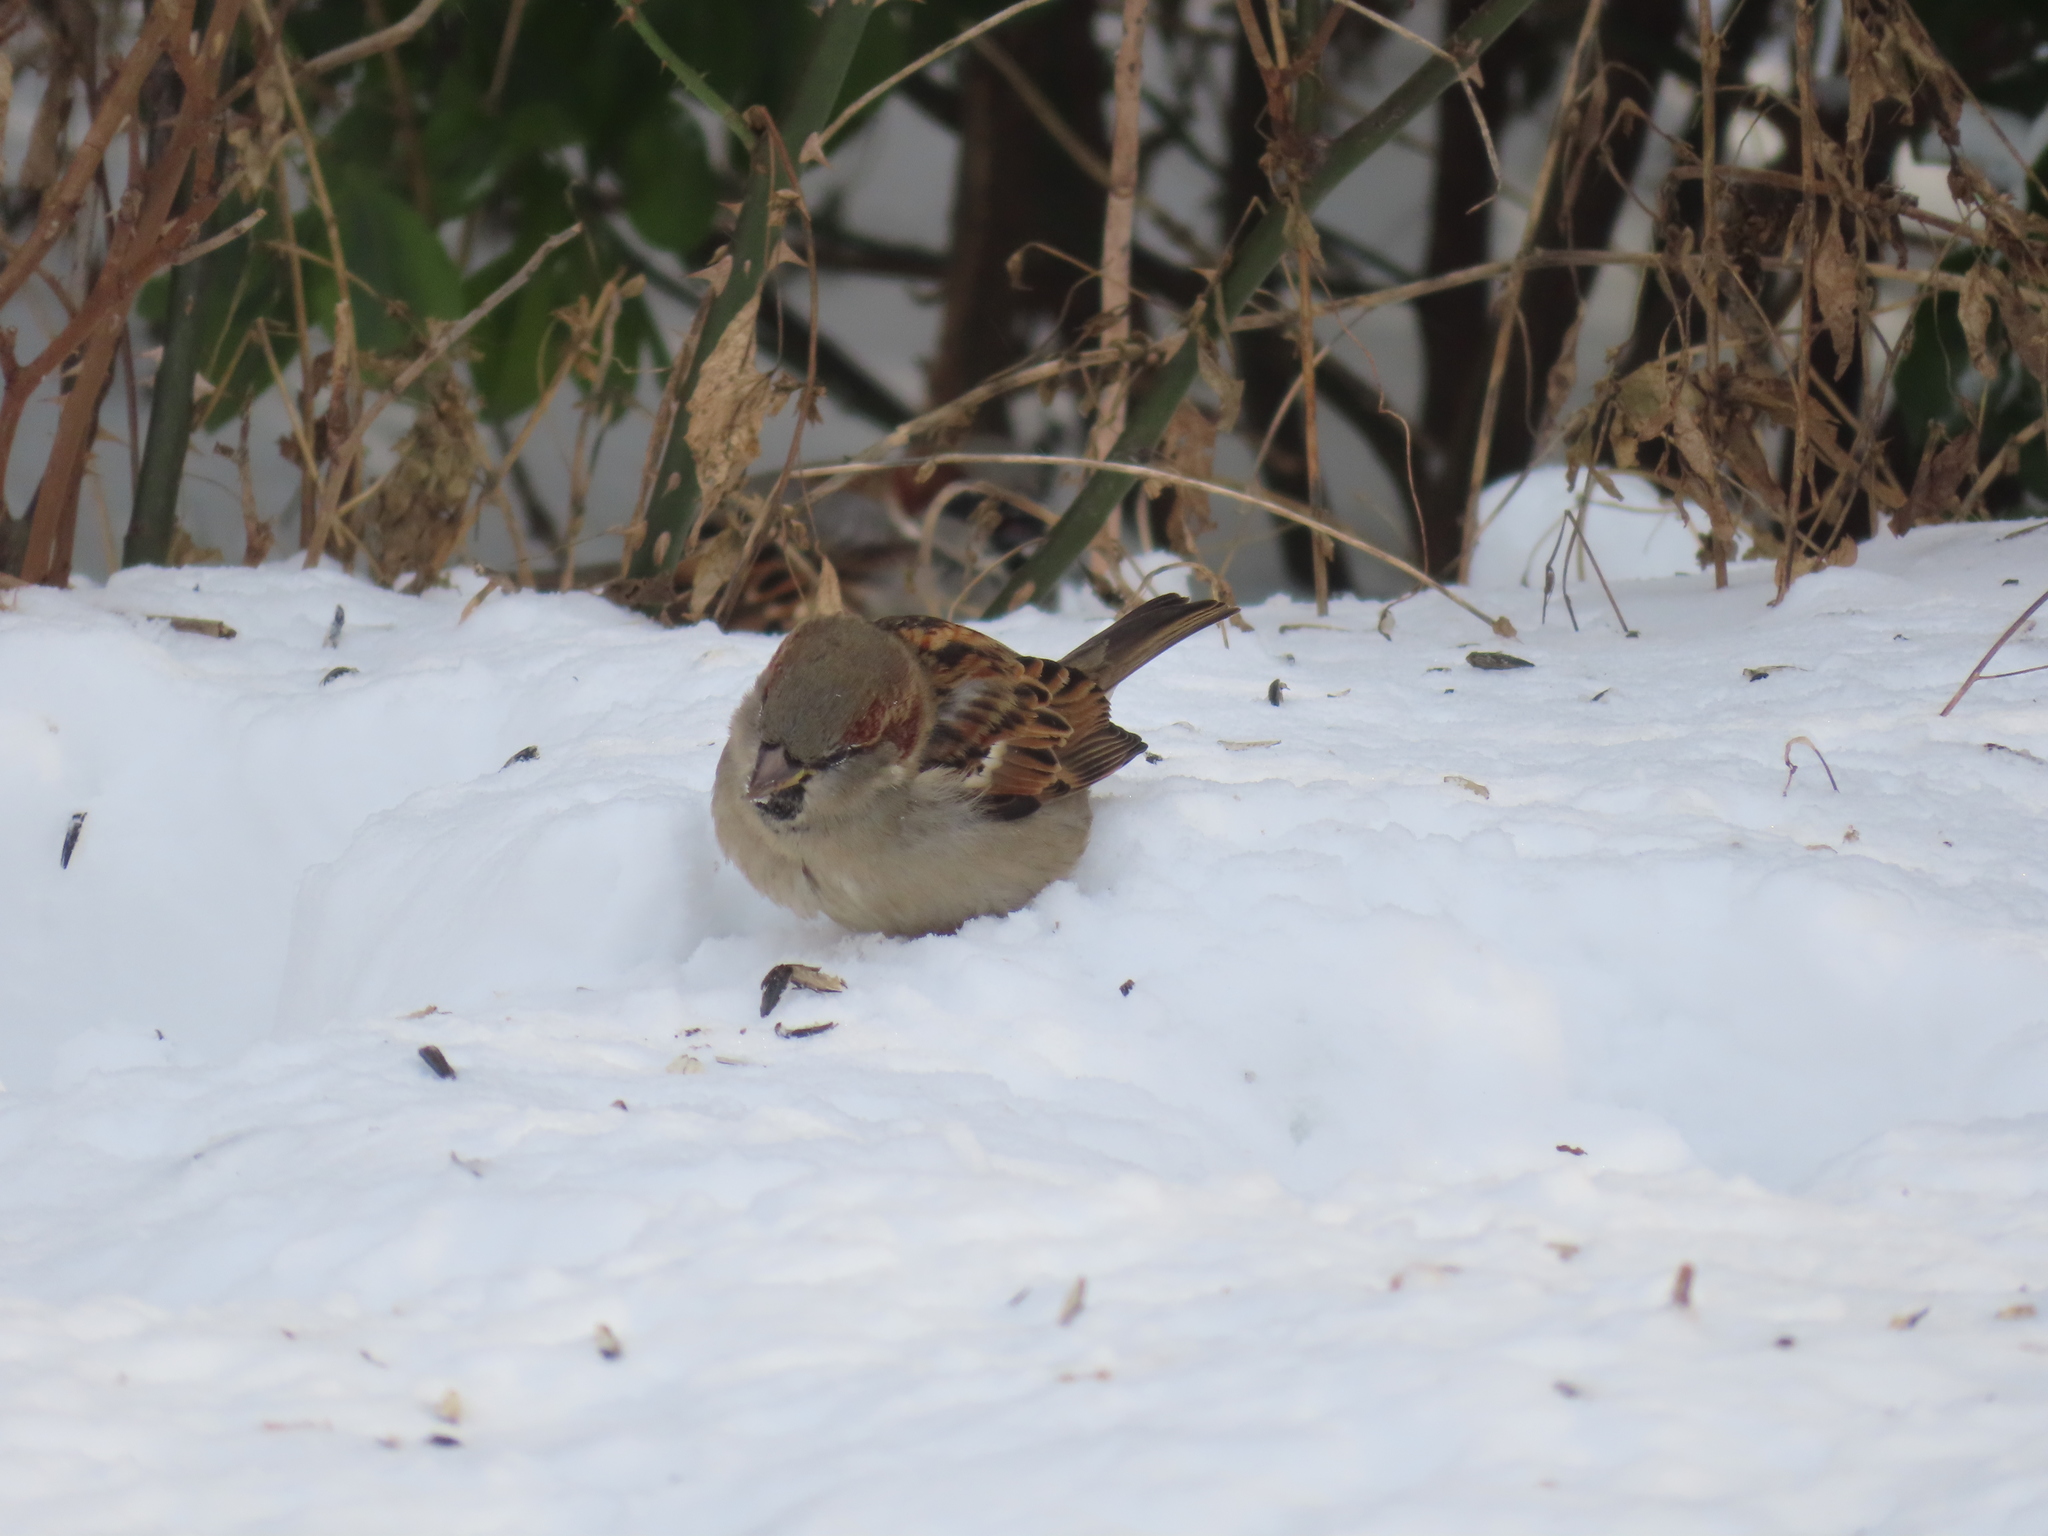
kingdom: Animalia
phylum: Chordata
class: Aves
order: Passeriformes
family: Passeridae
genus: Passer
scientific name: Passer domesticus
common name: House sparrow
